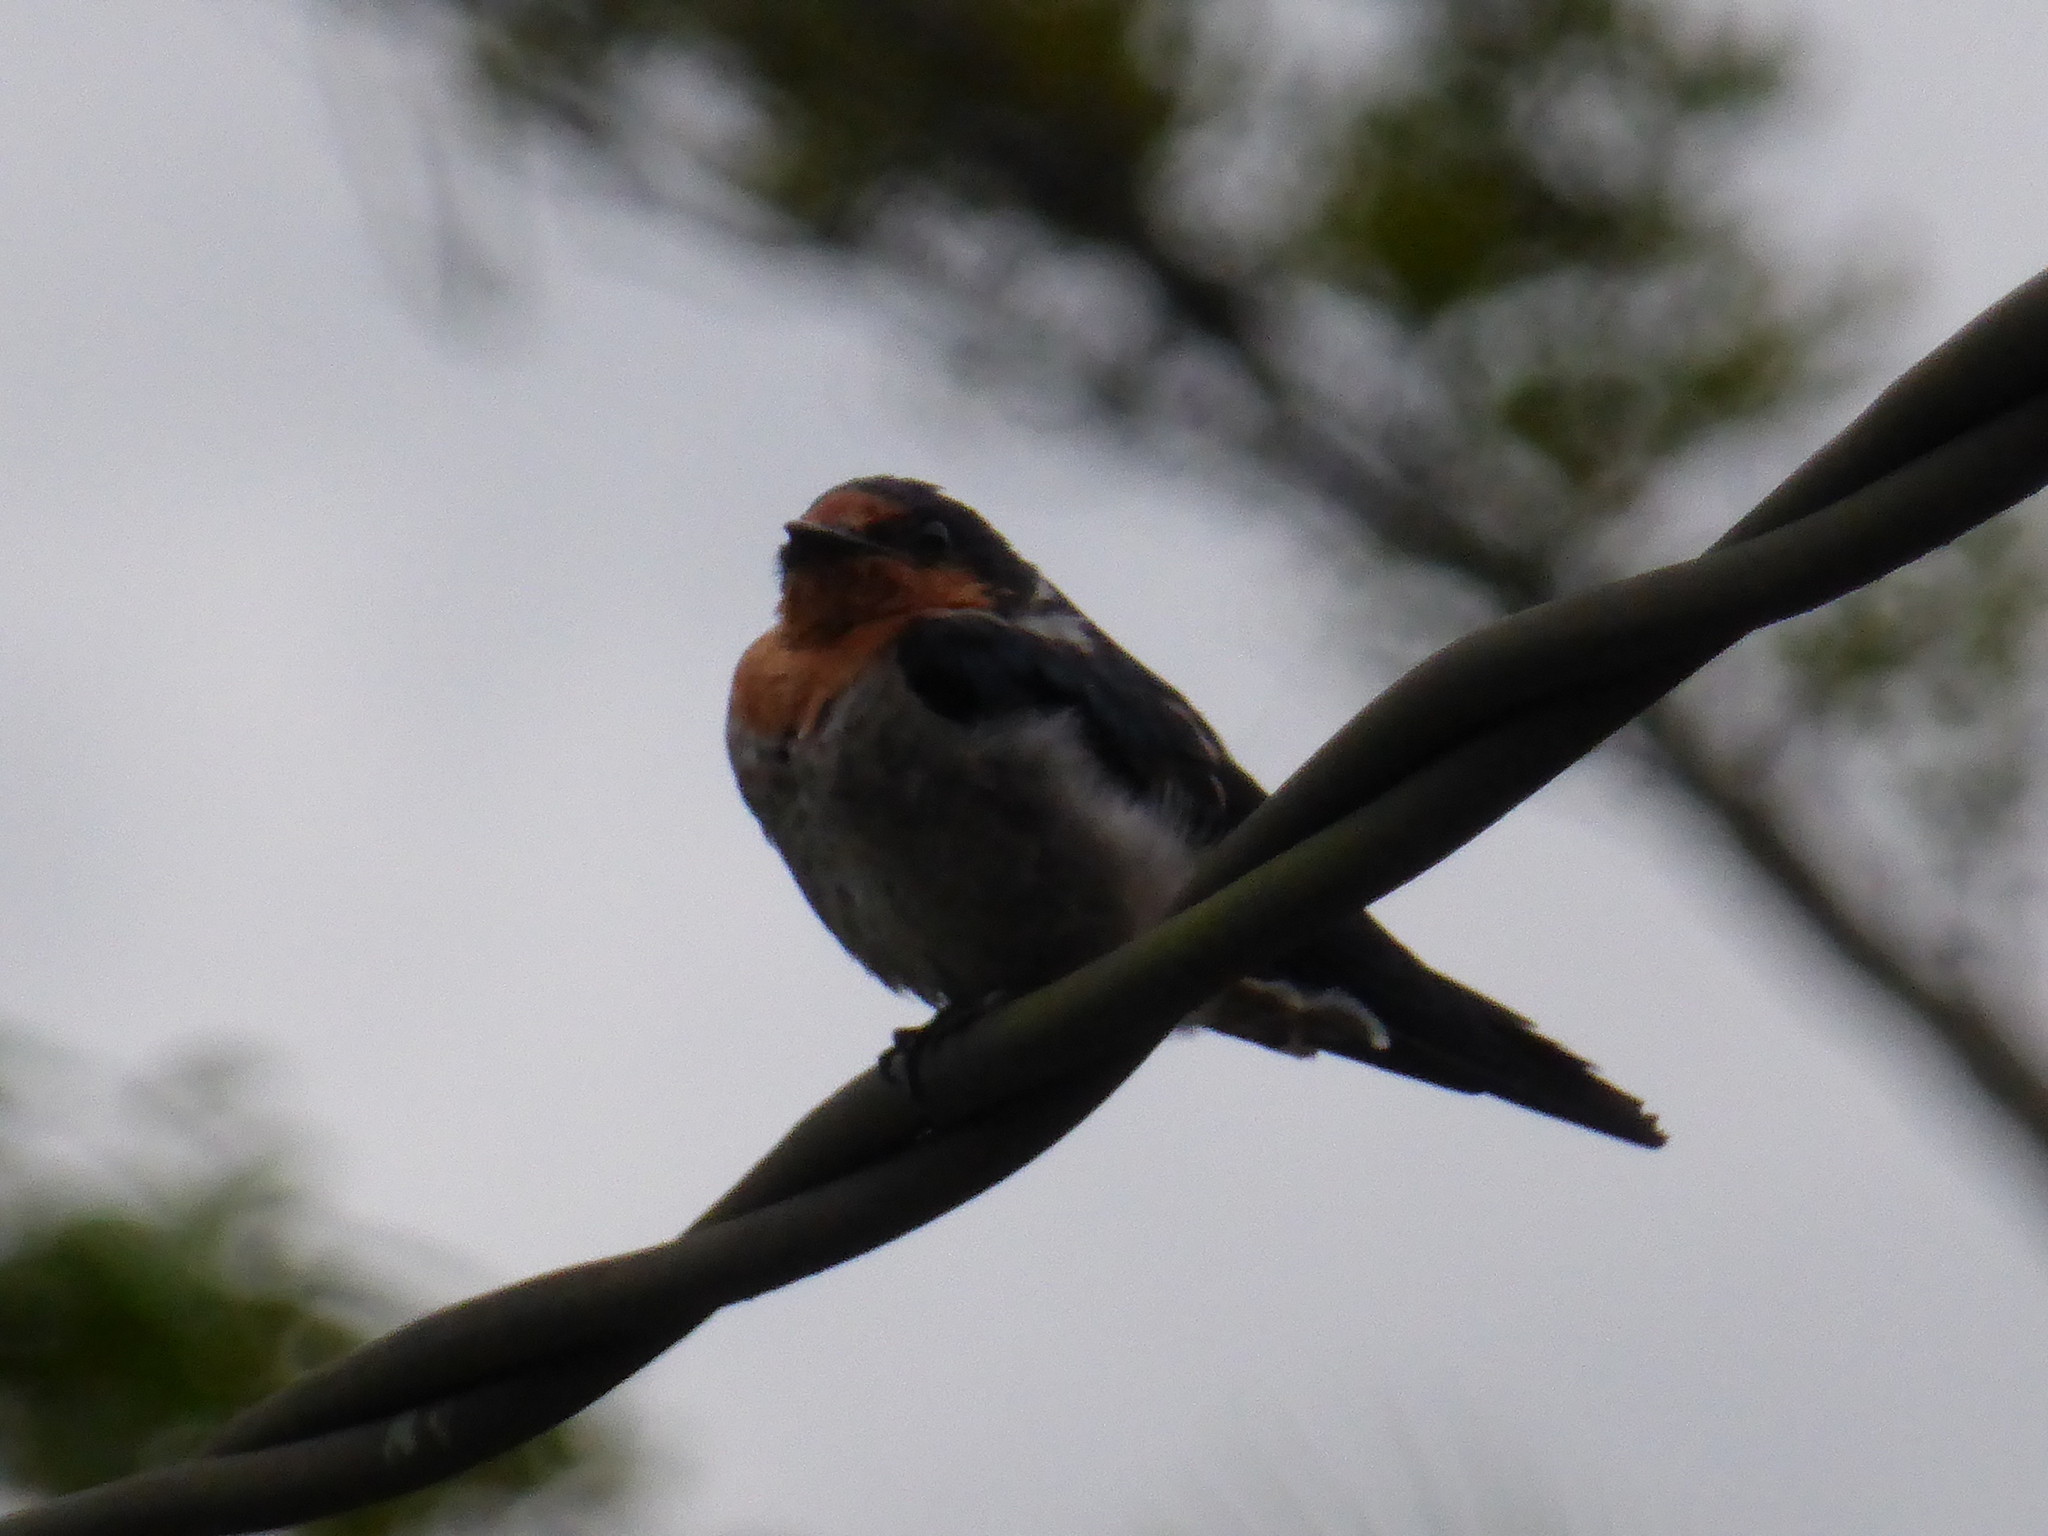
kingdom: Animalia
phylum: Chordata
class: Aves
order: Passeriformes
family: Hirundinidae
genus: Hirundo
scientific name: Hirundo tahitica
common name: Pacific swallow
